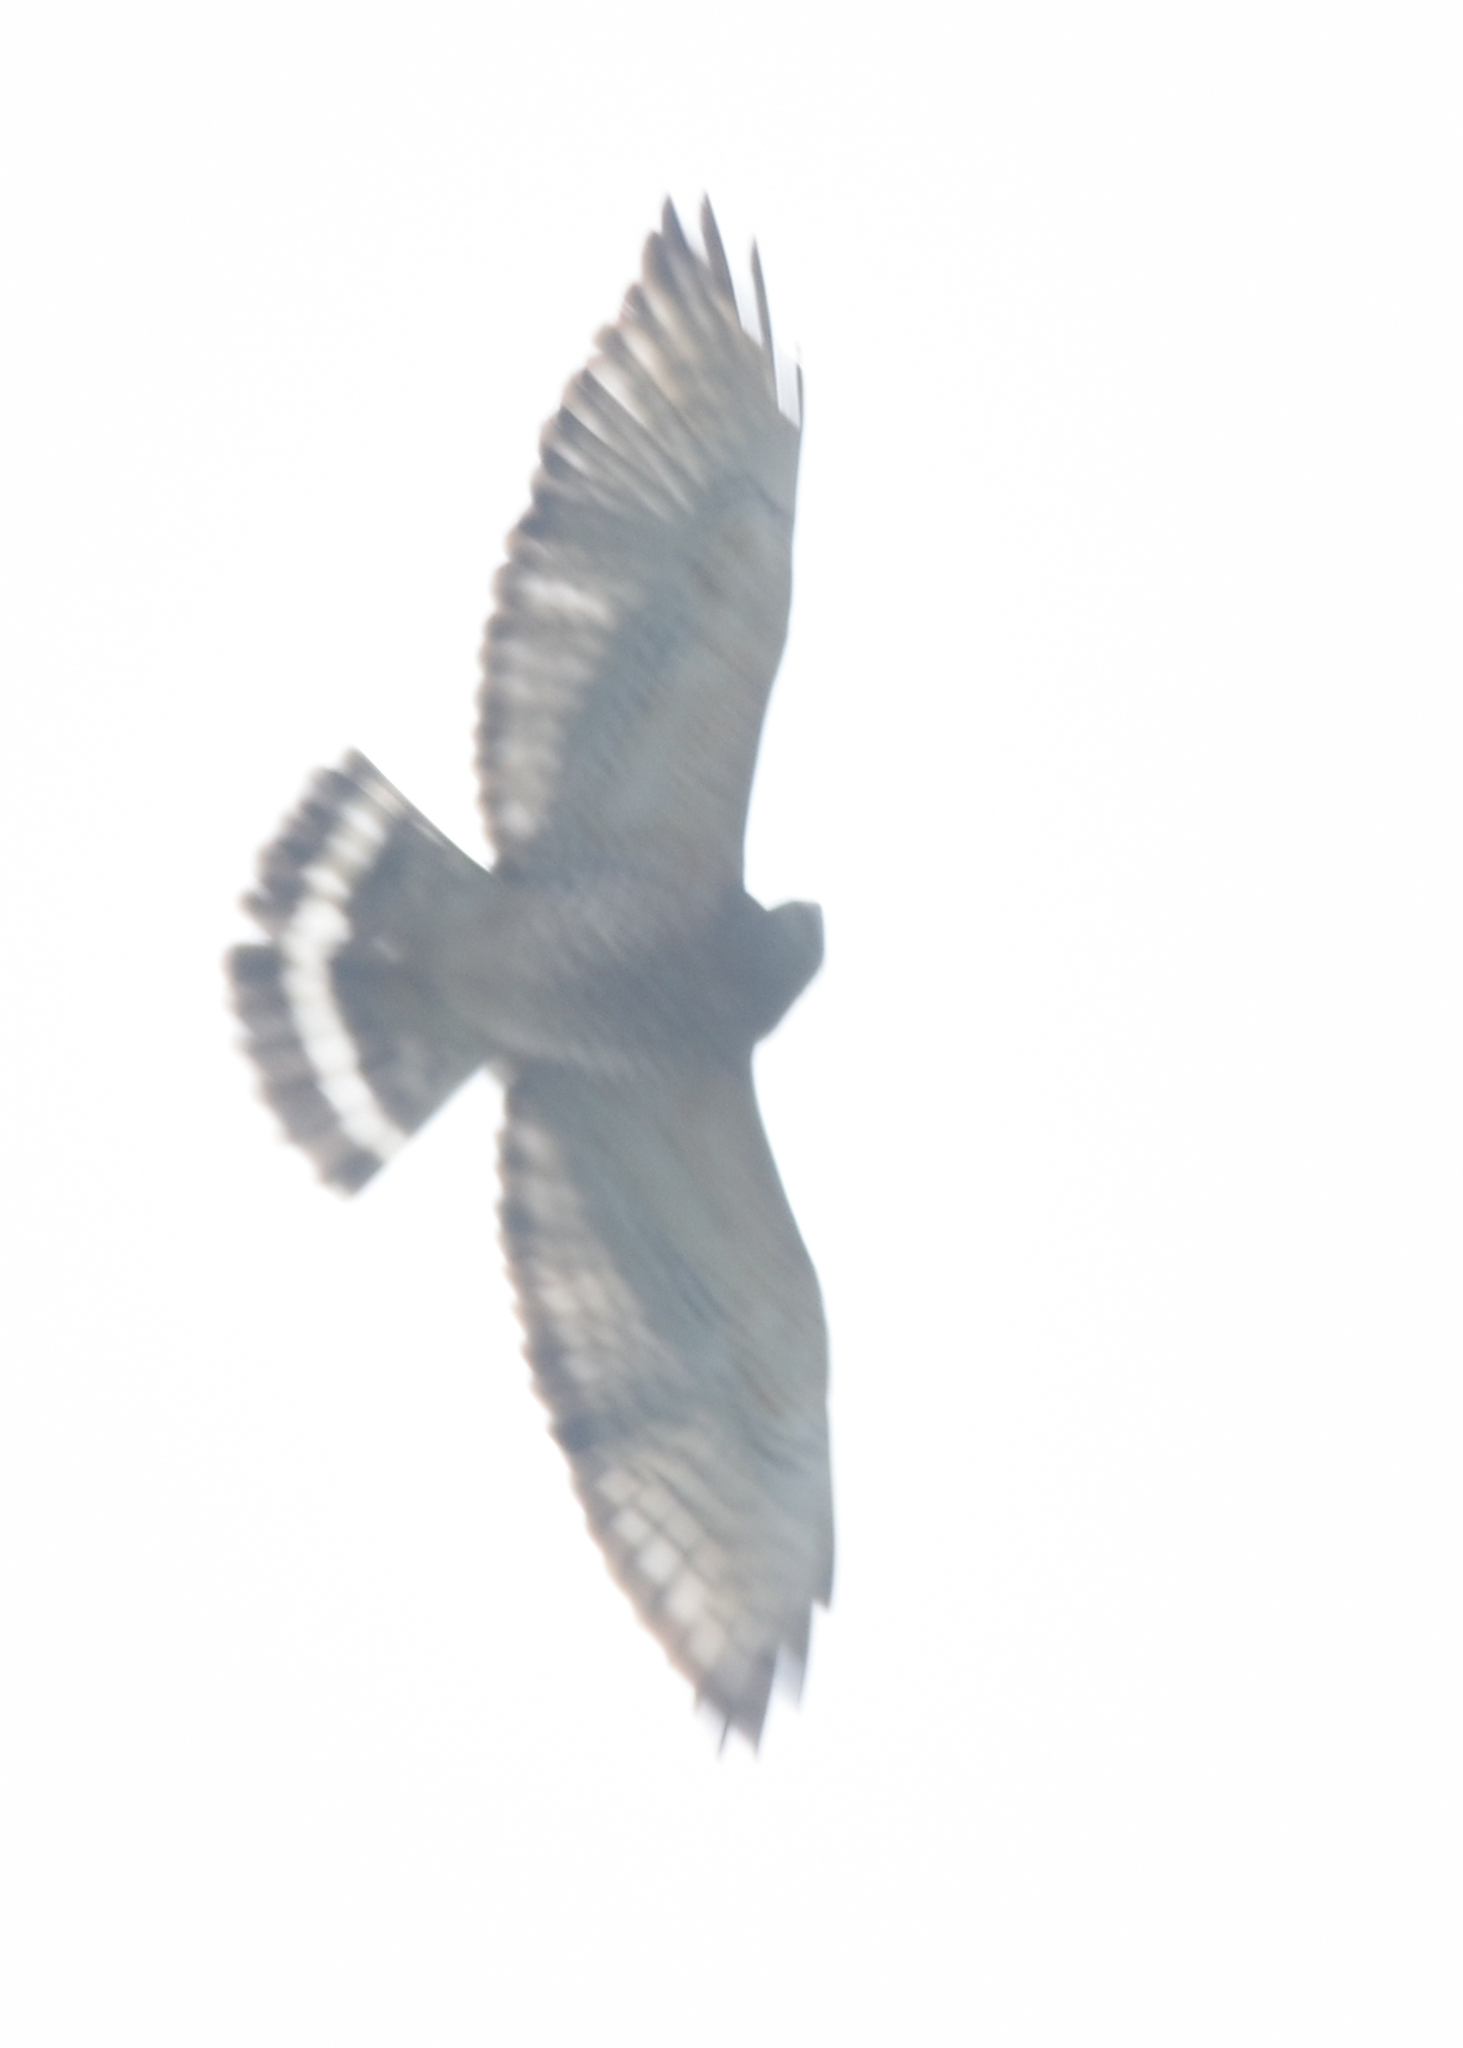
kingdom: Animalia
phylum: Chordata
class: Aves
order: Accipitriformes
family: Accipitridae
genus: Buteo
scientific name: Buteo platypterus
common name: Broad-winged hawk
